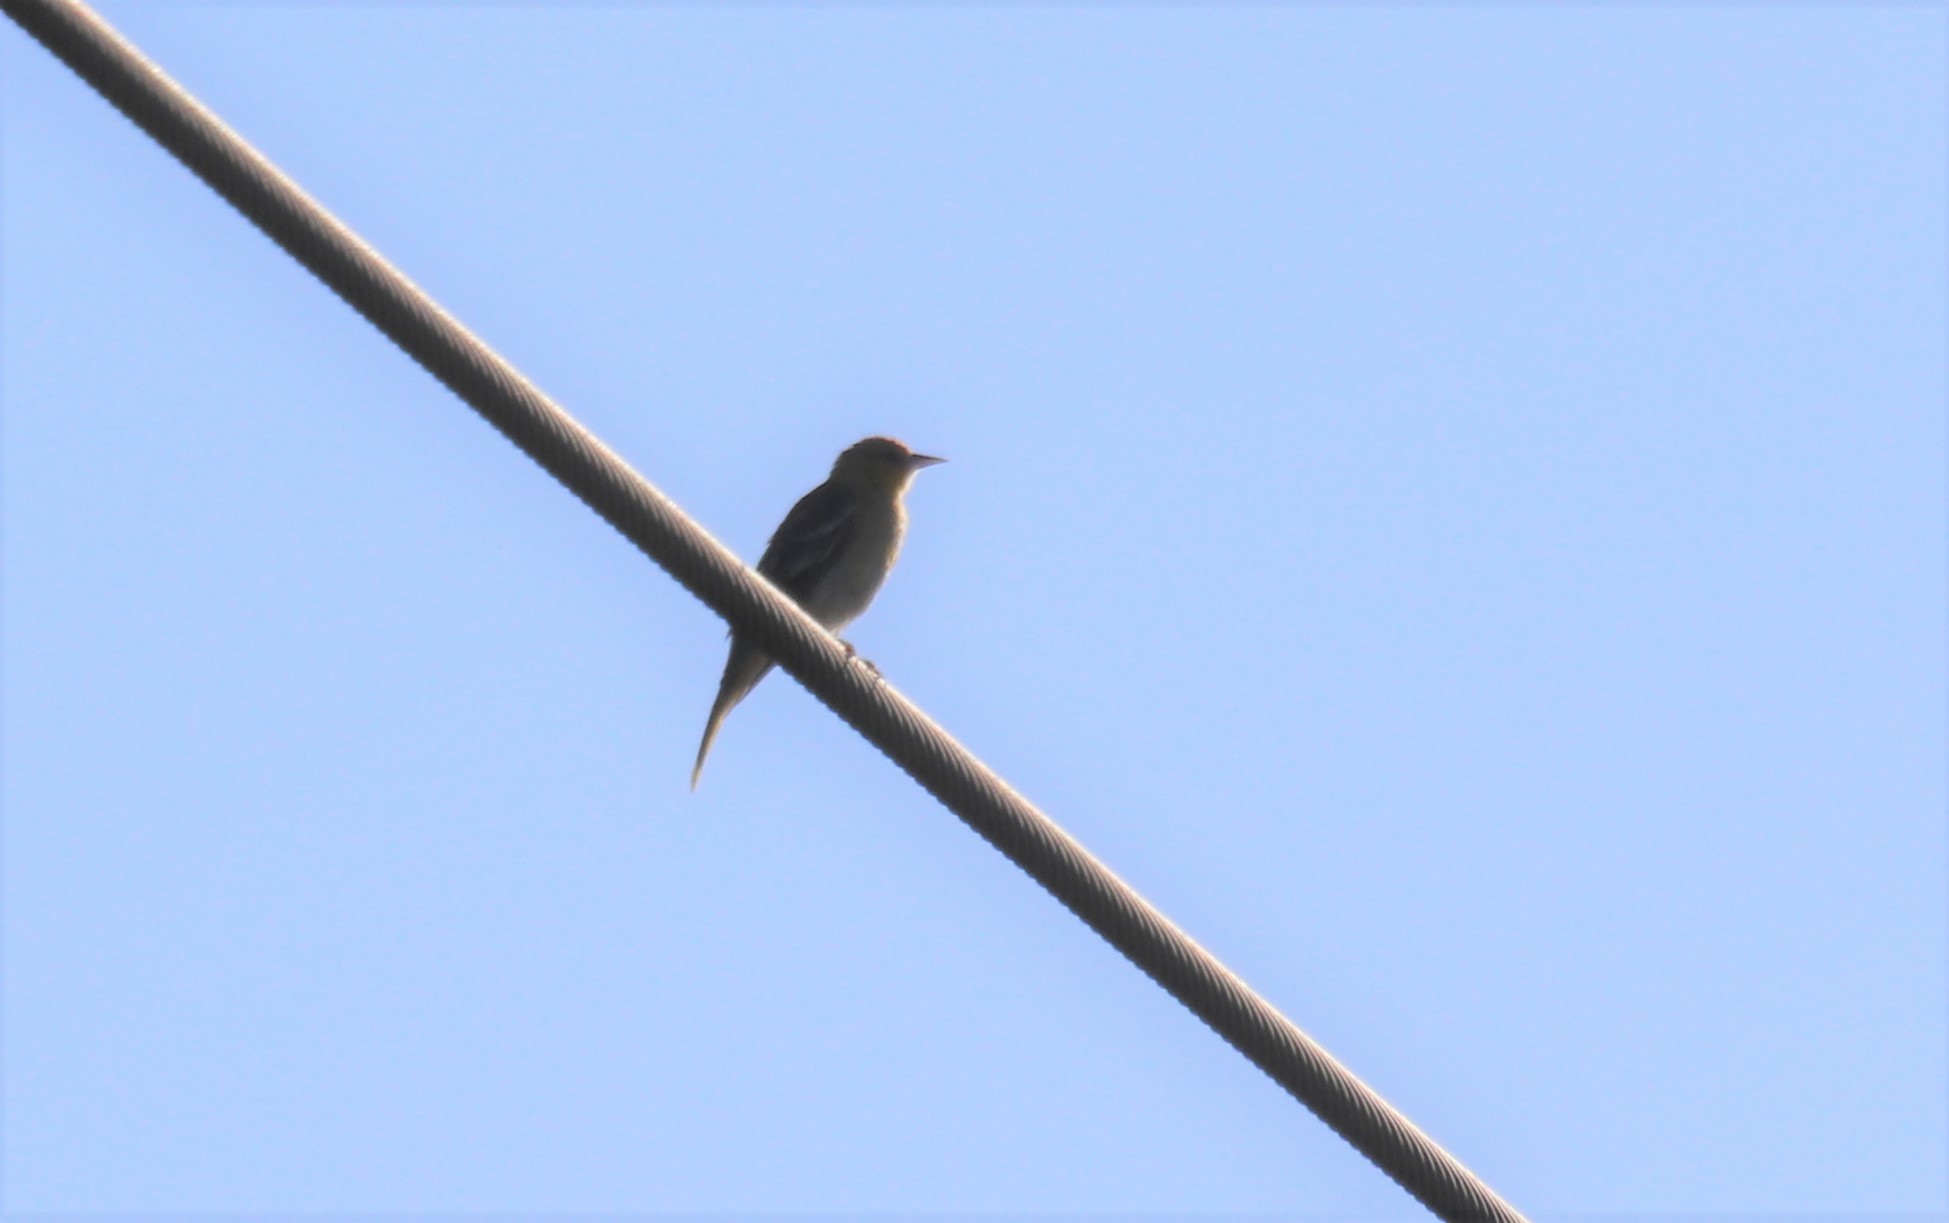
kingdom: Animalia
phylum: Chordata
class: Aves
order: Passeriformes
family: Icteridae
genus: Icterus
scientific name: Icterus bullockii
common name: Bullock's oriole
